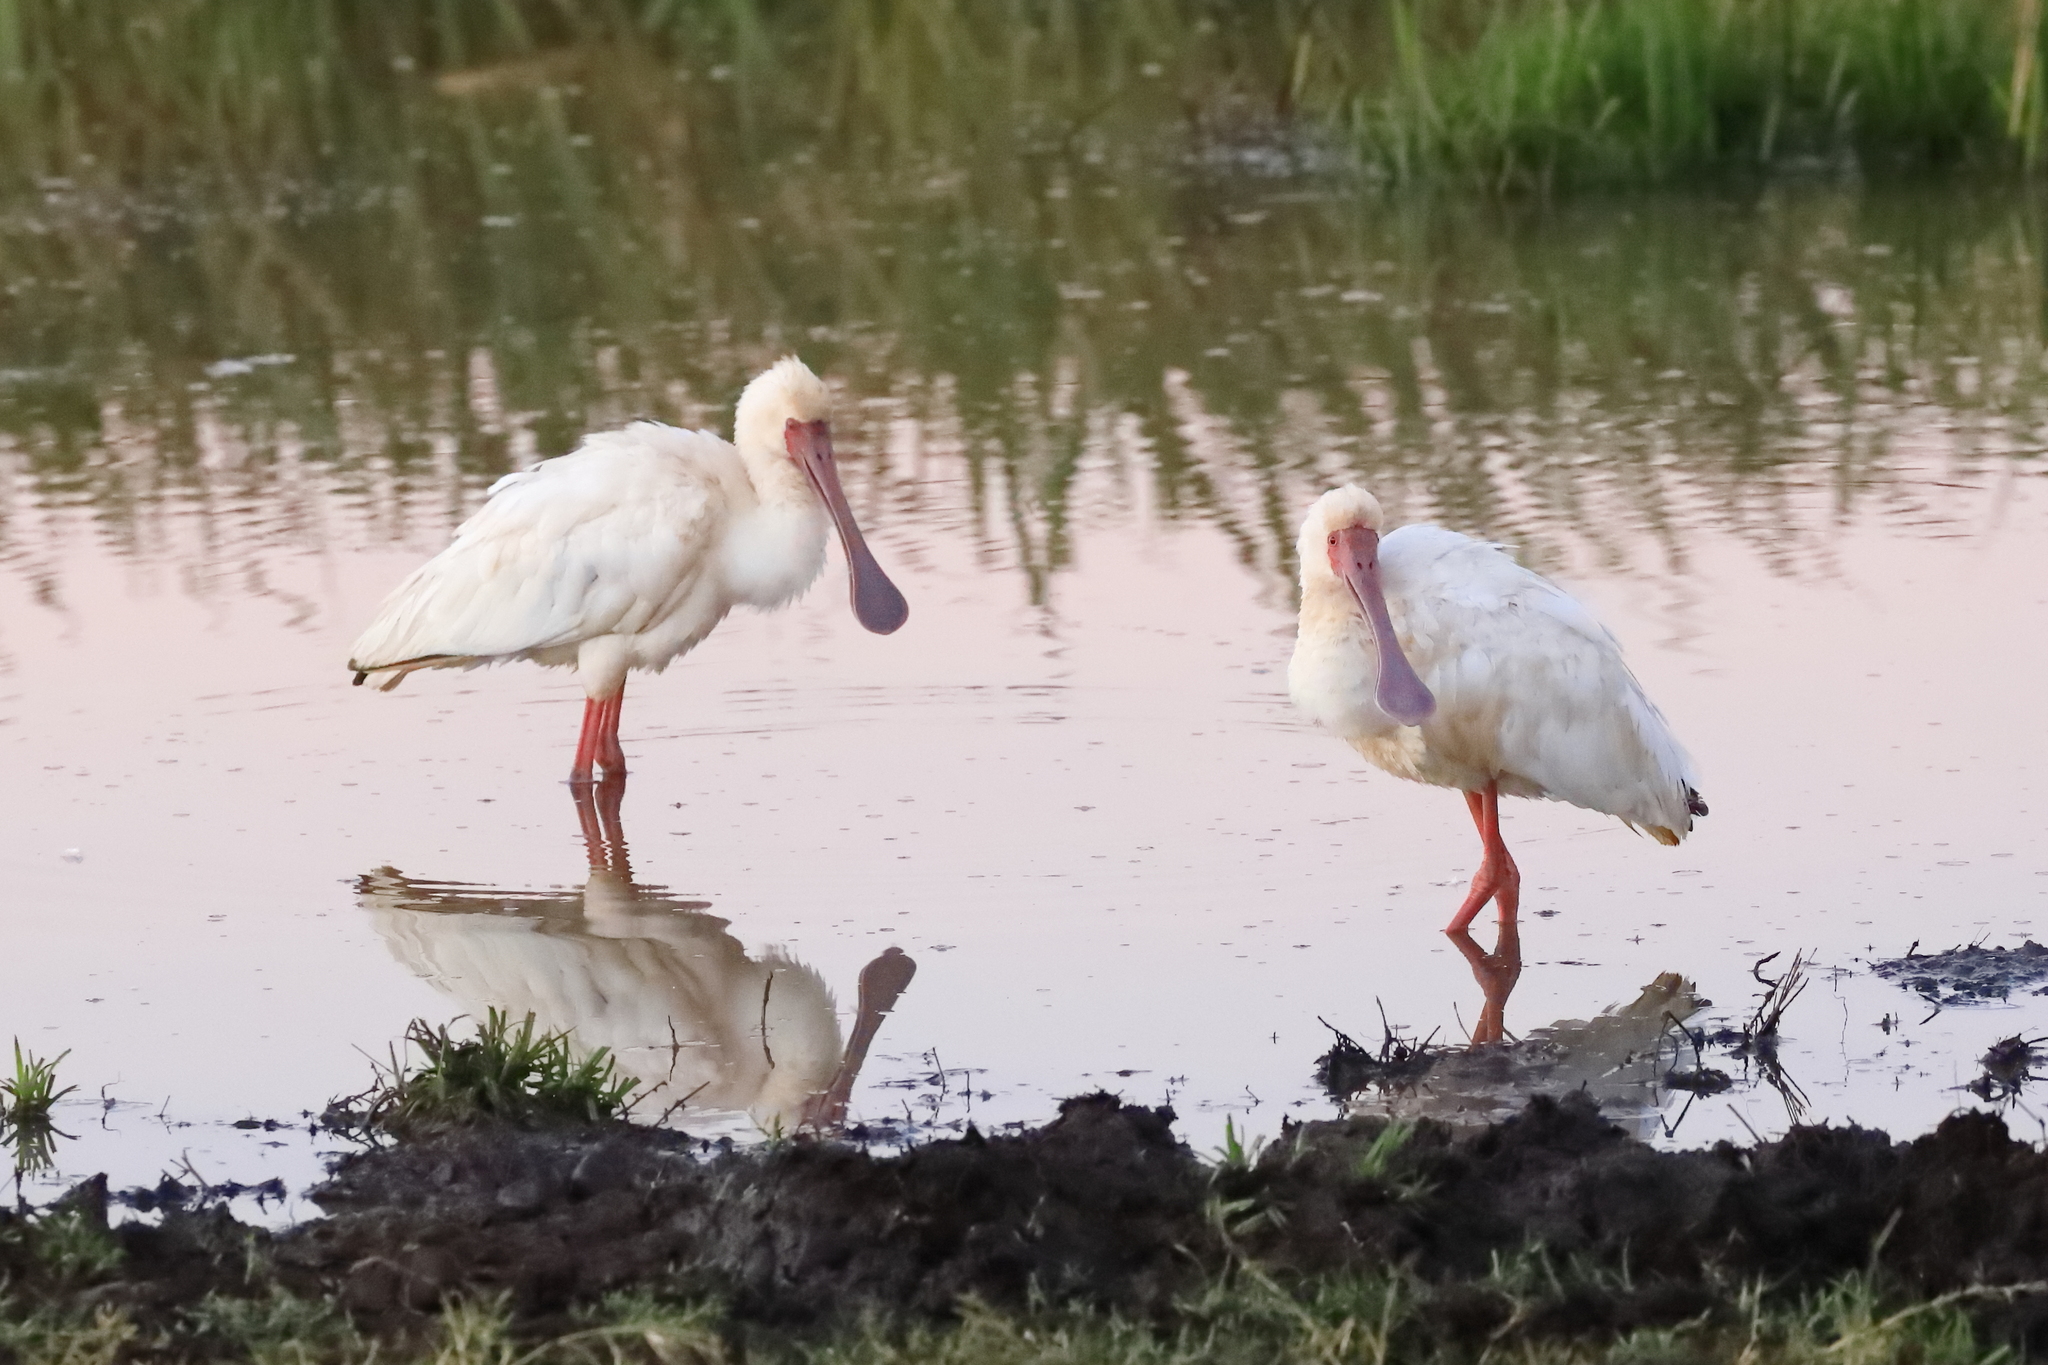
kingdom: Animalia
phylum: Chordata
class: Aves
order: Pelecaniformes
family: Threskiornithidae
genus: Platalea
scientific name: Platalea alba
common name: African spoonbill
